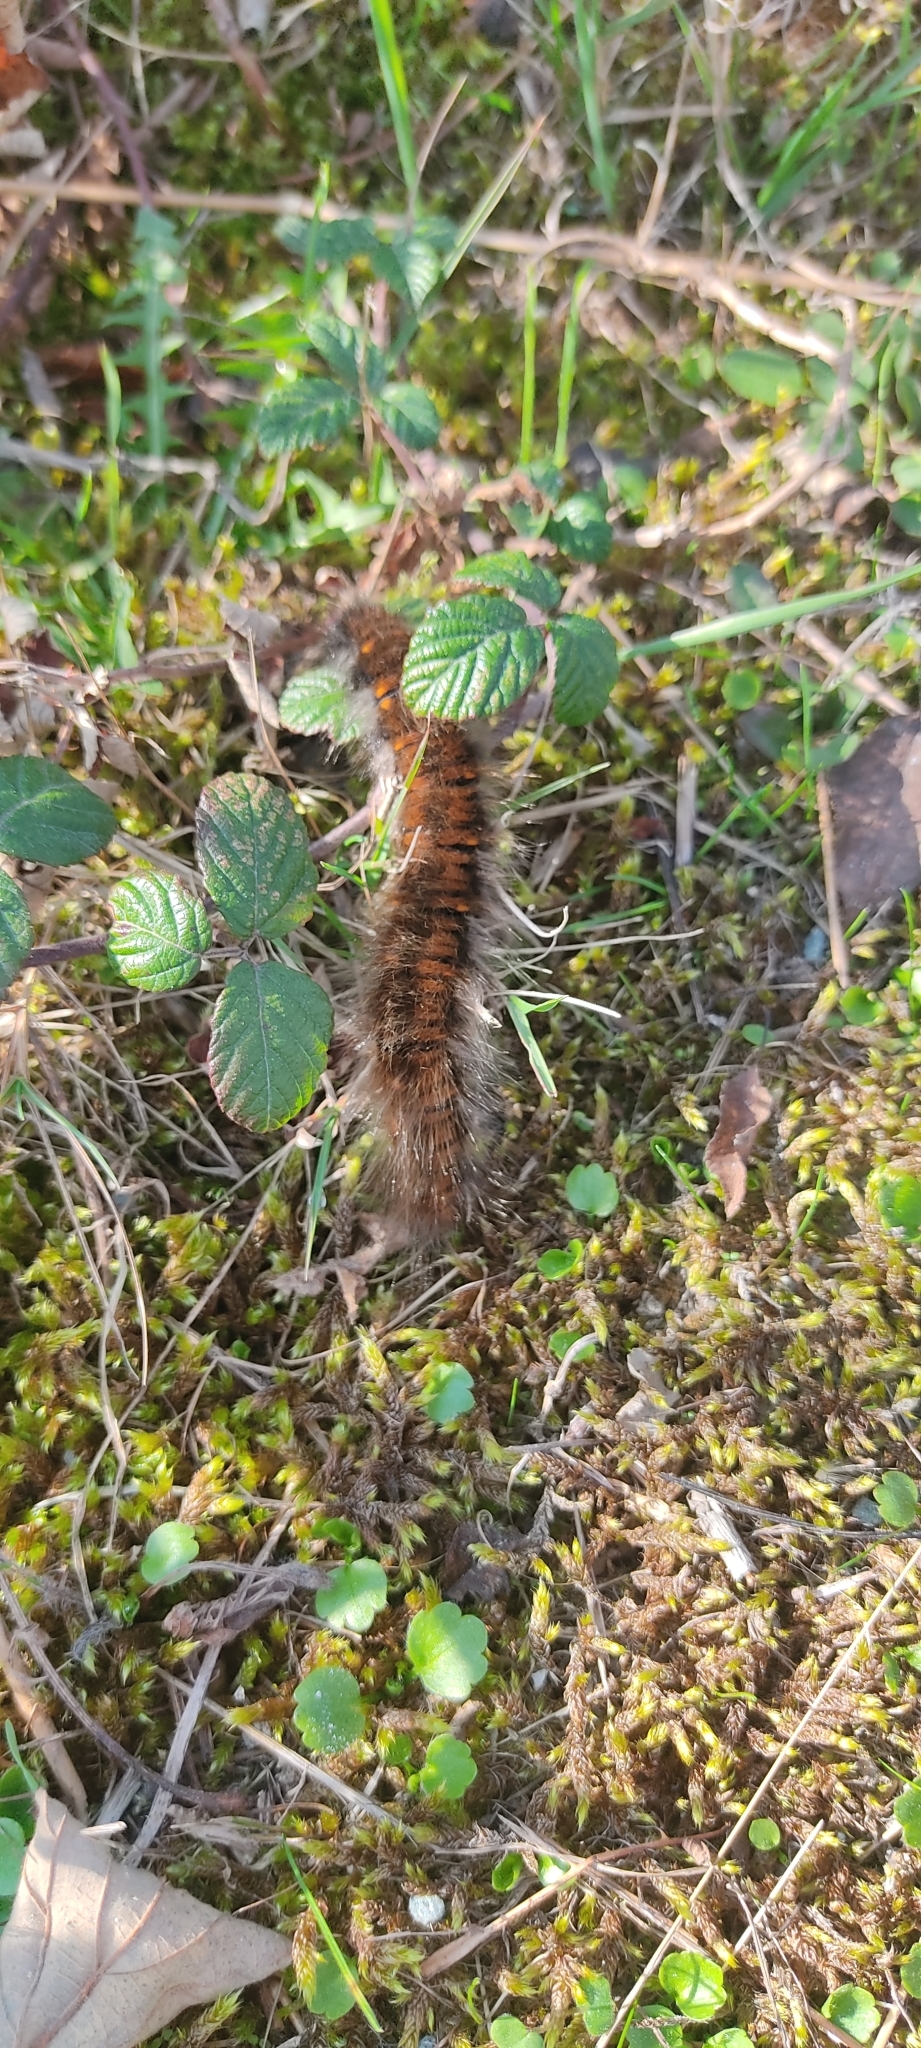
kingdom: Animalia
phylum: Arthropoda
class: Insecta
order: Lepidoptera
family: Lasiocampidae
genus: Macrothylacia
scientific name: Macrothylacia rubi
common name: Fox moth
